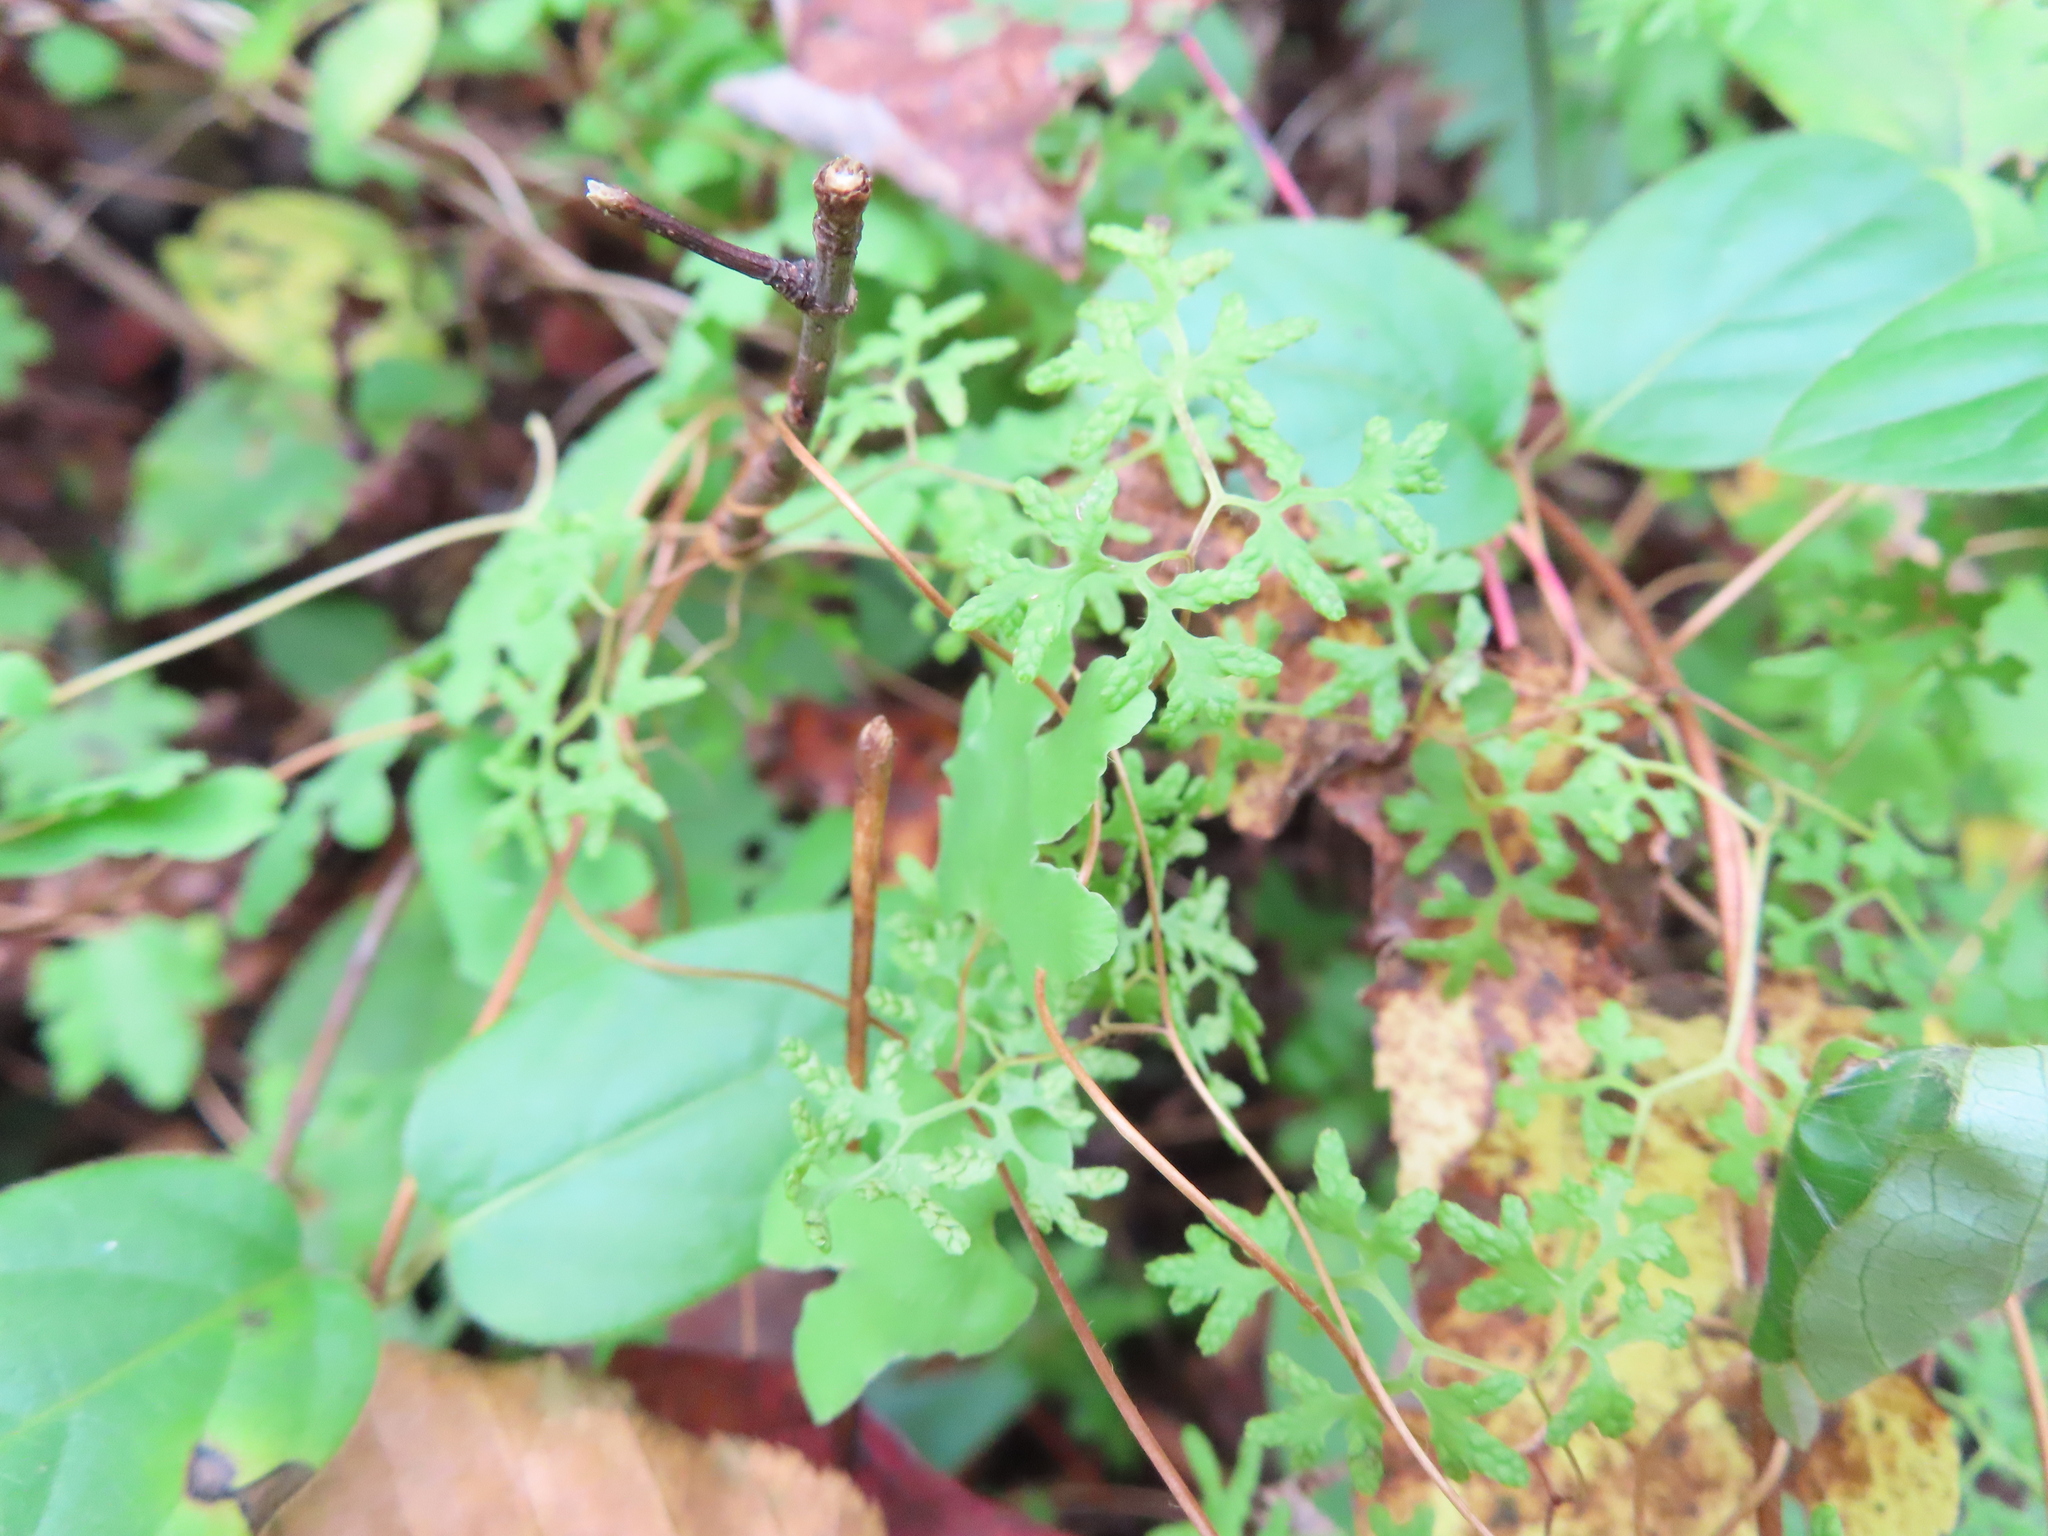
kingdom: Plantae
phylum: Tracheophyta
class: Polypodiopsida
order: Schizaeales
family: Lygodiaceae
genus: Lygodium
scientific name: Lygodium palmatum
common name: American climbing fern
